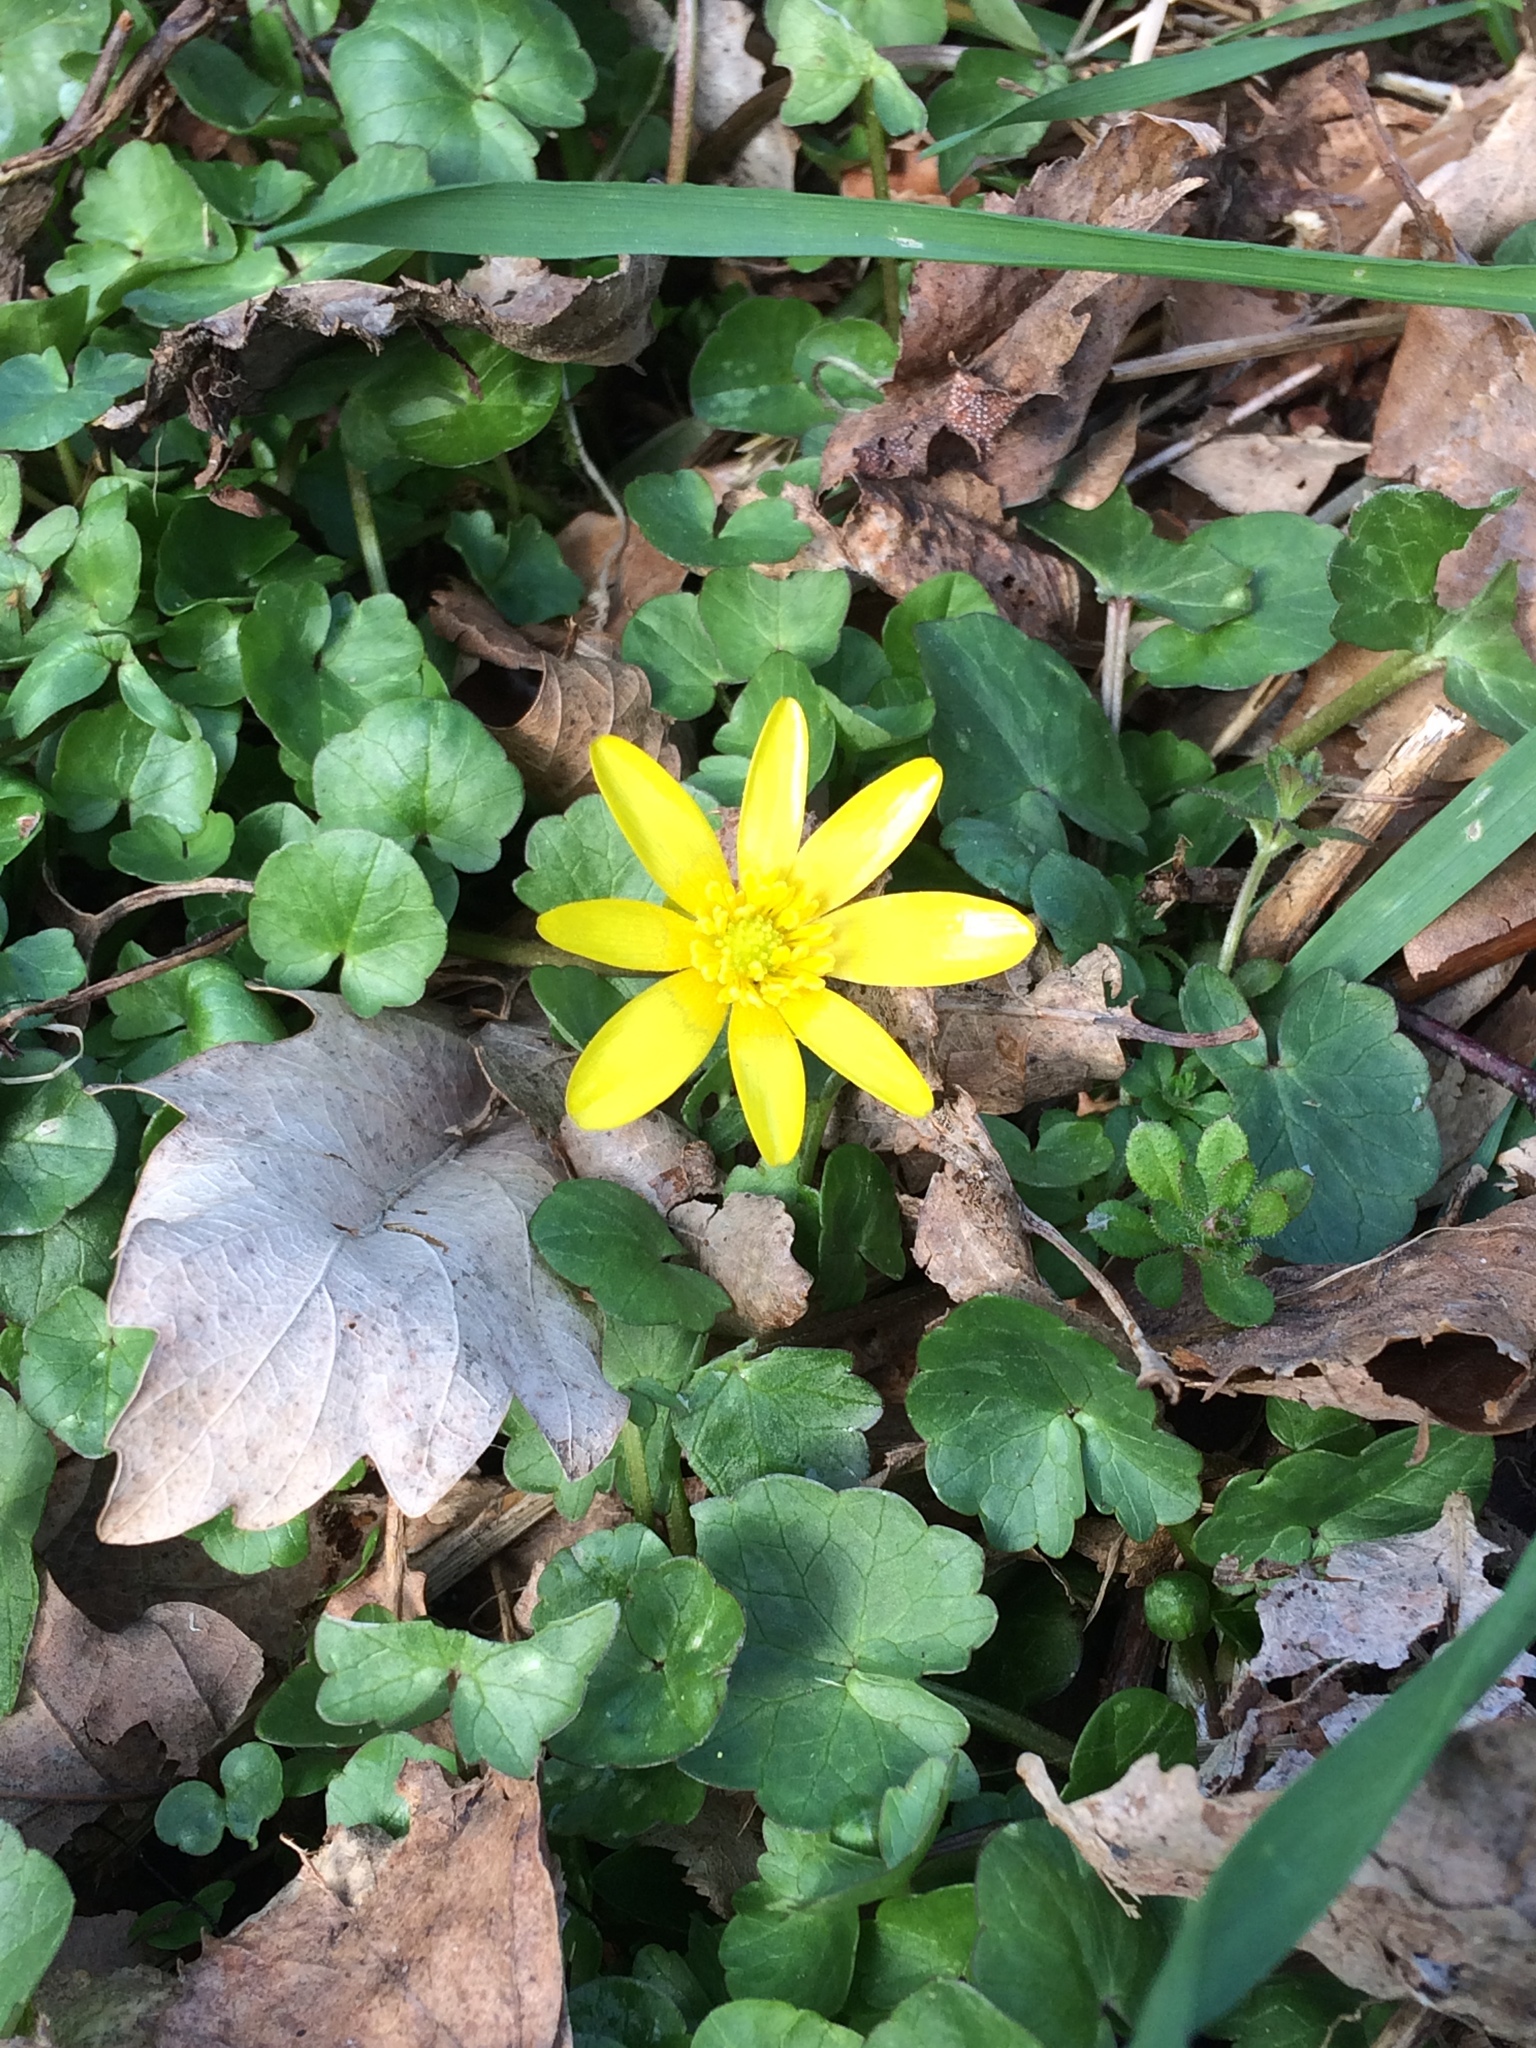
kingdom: Plantae
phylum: Tracheophyta
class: Magnoliopsida
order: Ranunculales
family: Ranunculaceae
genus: Ficaria
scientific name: Ficaria verna
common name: Lesser celandine
